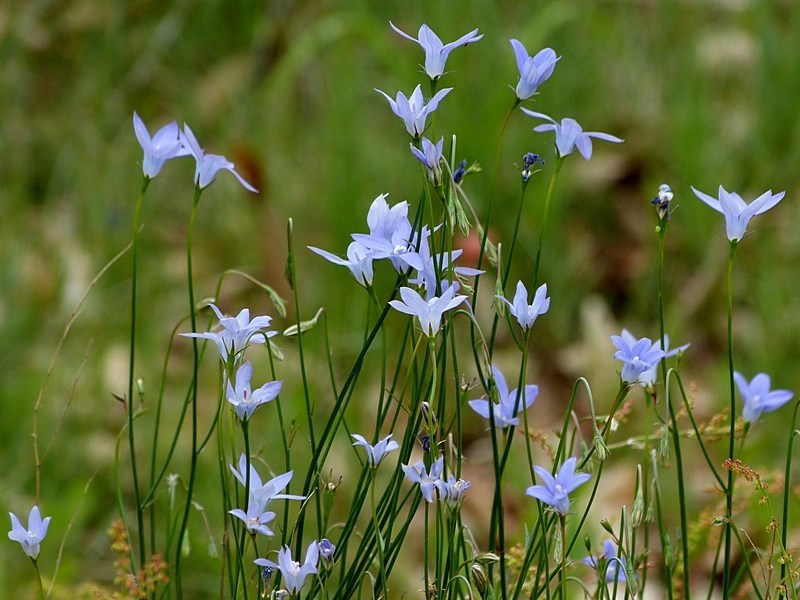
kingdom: Plantae
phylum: Tracheophyta
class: Magnoliopsida
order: Asterales
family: Campanulaceae
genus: Wahlenbergia
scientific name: Wahlenbergia capillaris
